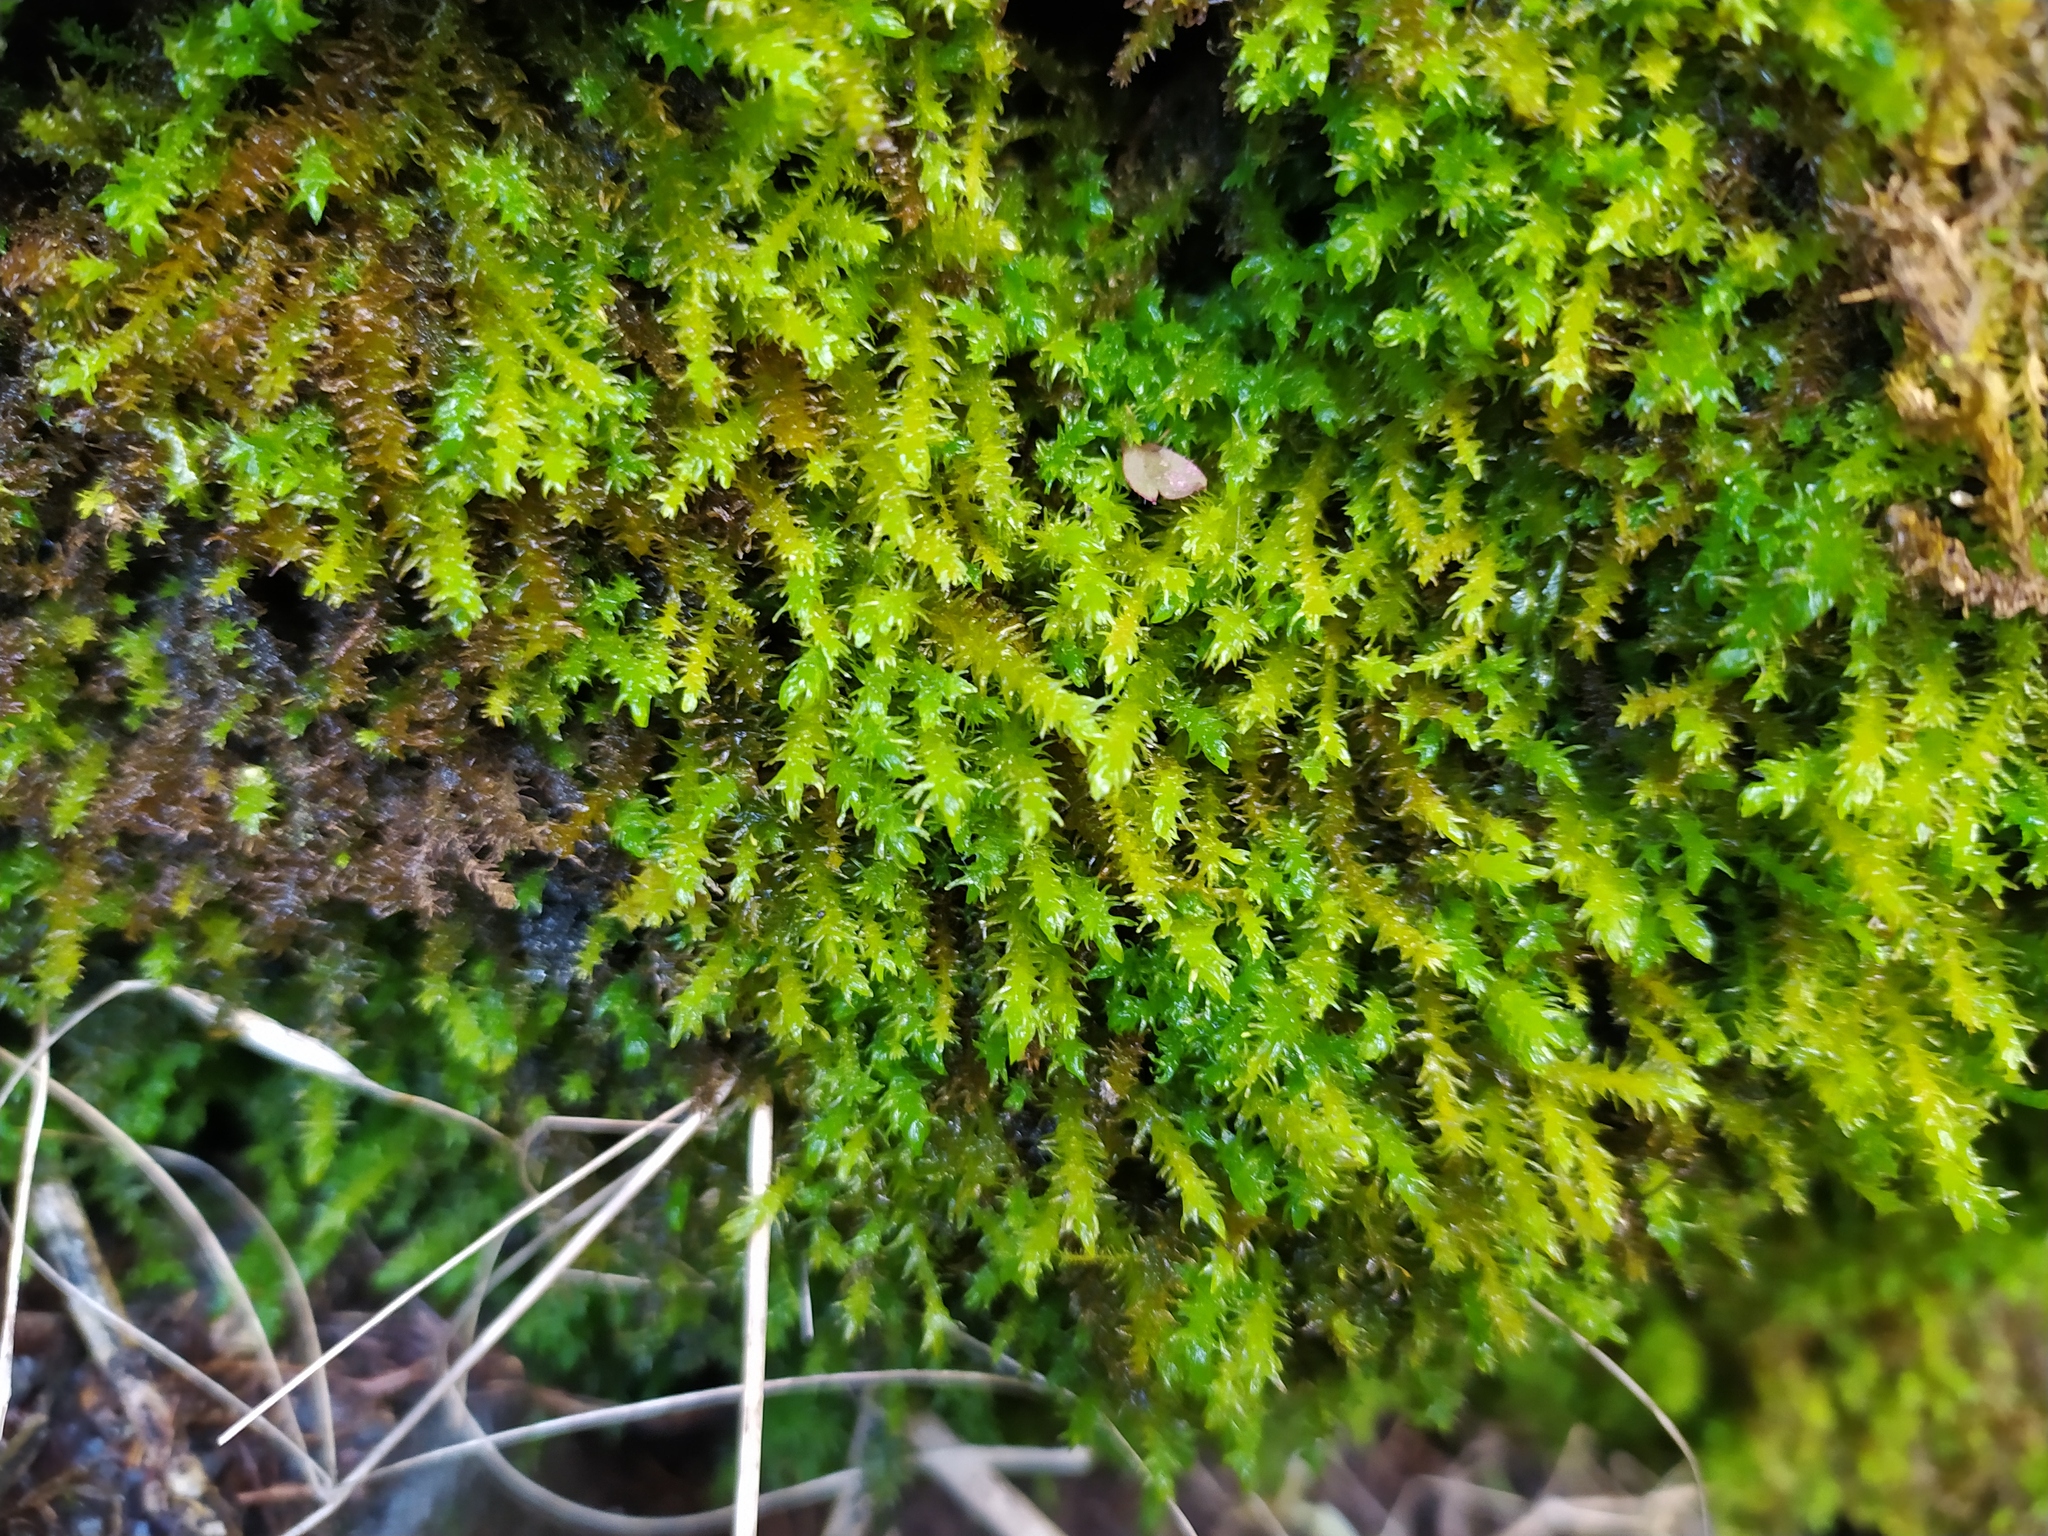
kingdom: Plantae
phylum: Bryophyta
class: Bryopsida
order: Hypnales
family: Anomodontaceae
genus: Anomodon
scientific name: Anomodon viticulosus
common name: Tall anomodon
